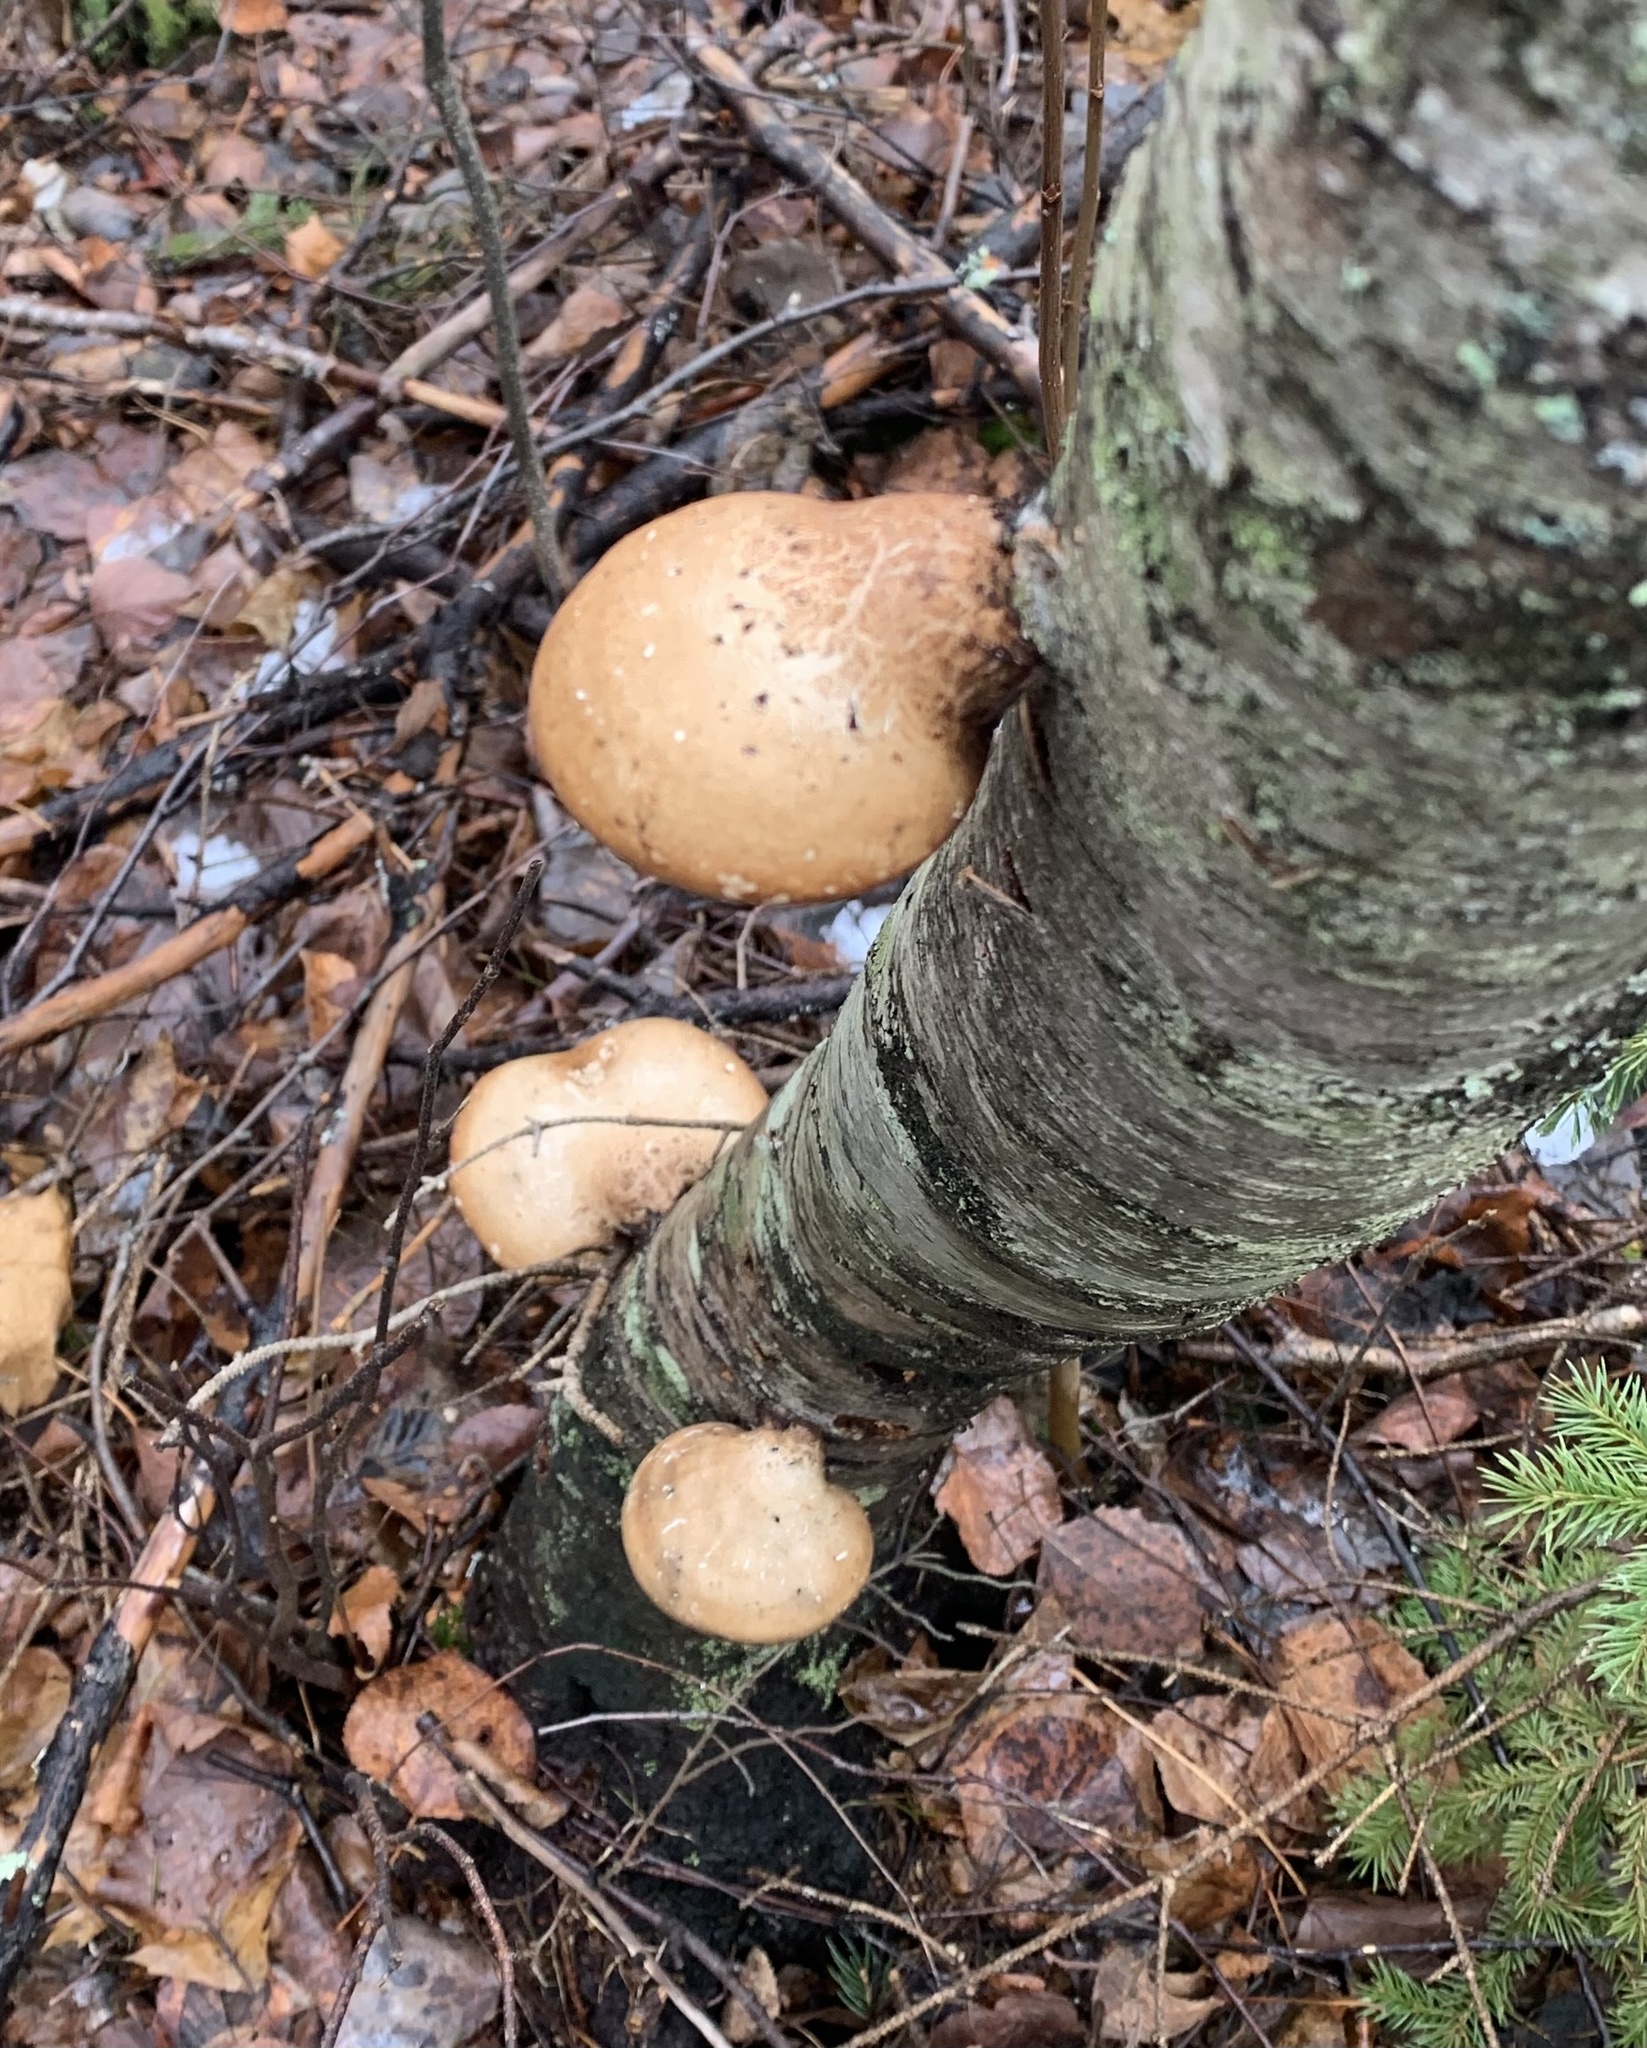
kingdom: Fungi
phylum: Basidiomycota
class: Agaricomycetes
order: Polyporales
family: Fomitopsidaceae
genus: Fomitopsis
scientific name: Fomitopsis betulina
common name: Birch polypore
